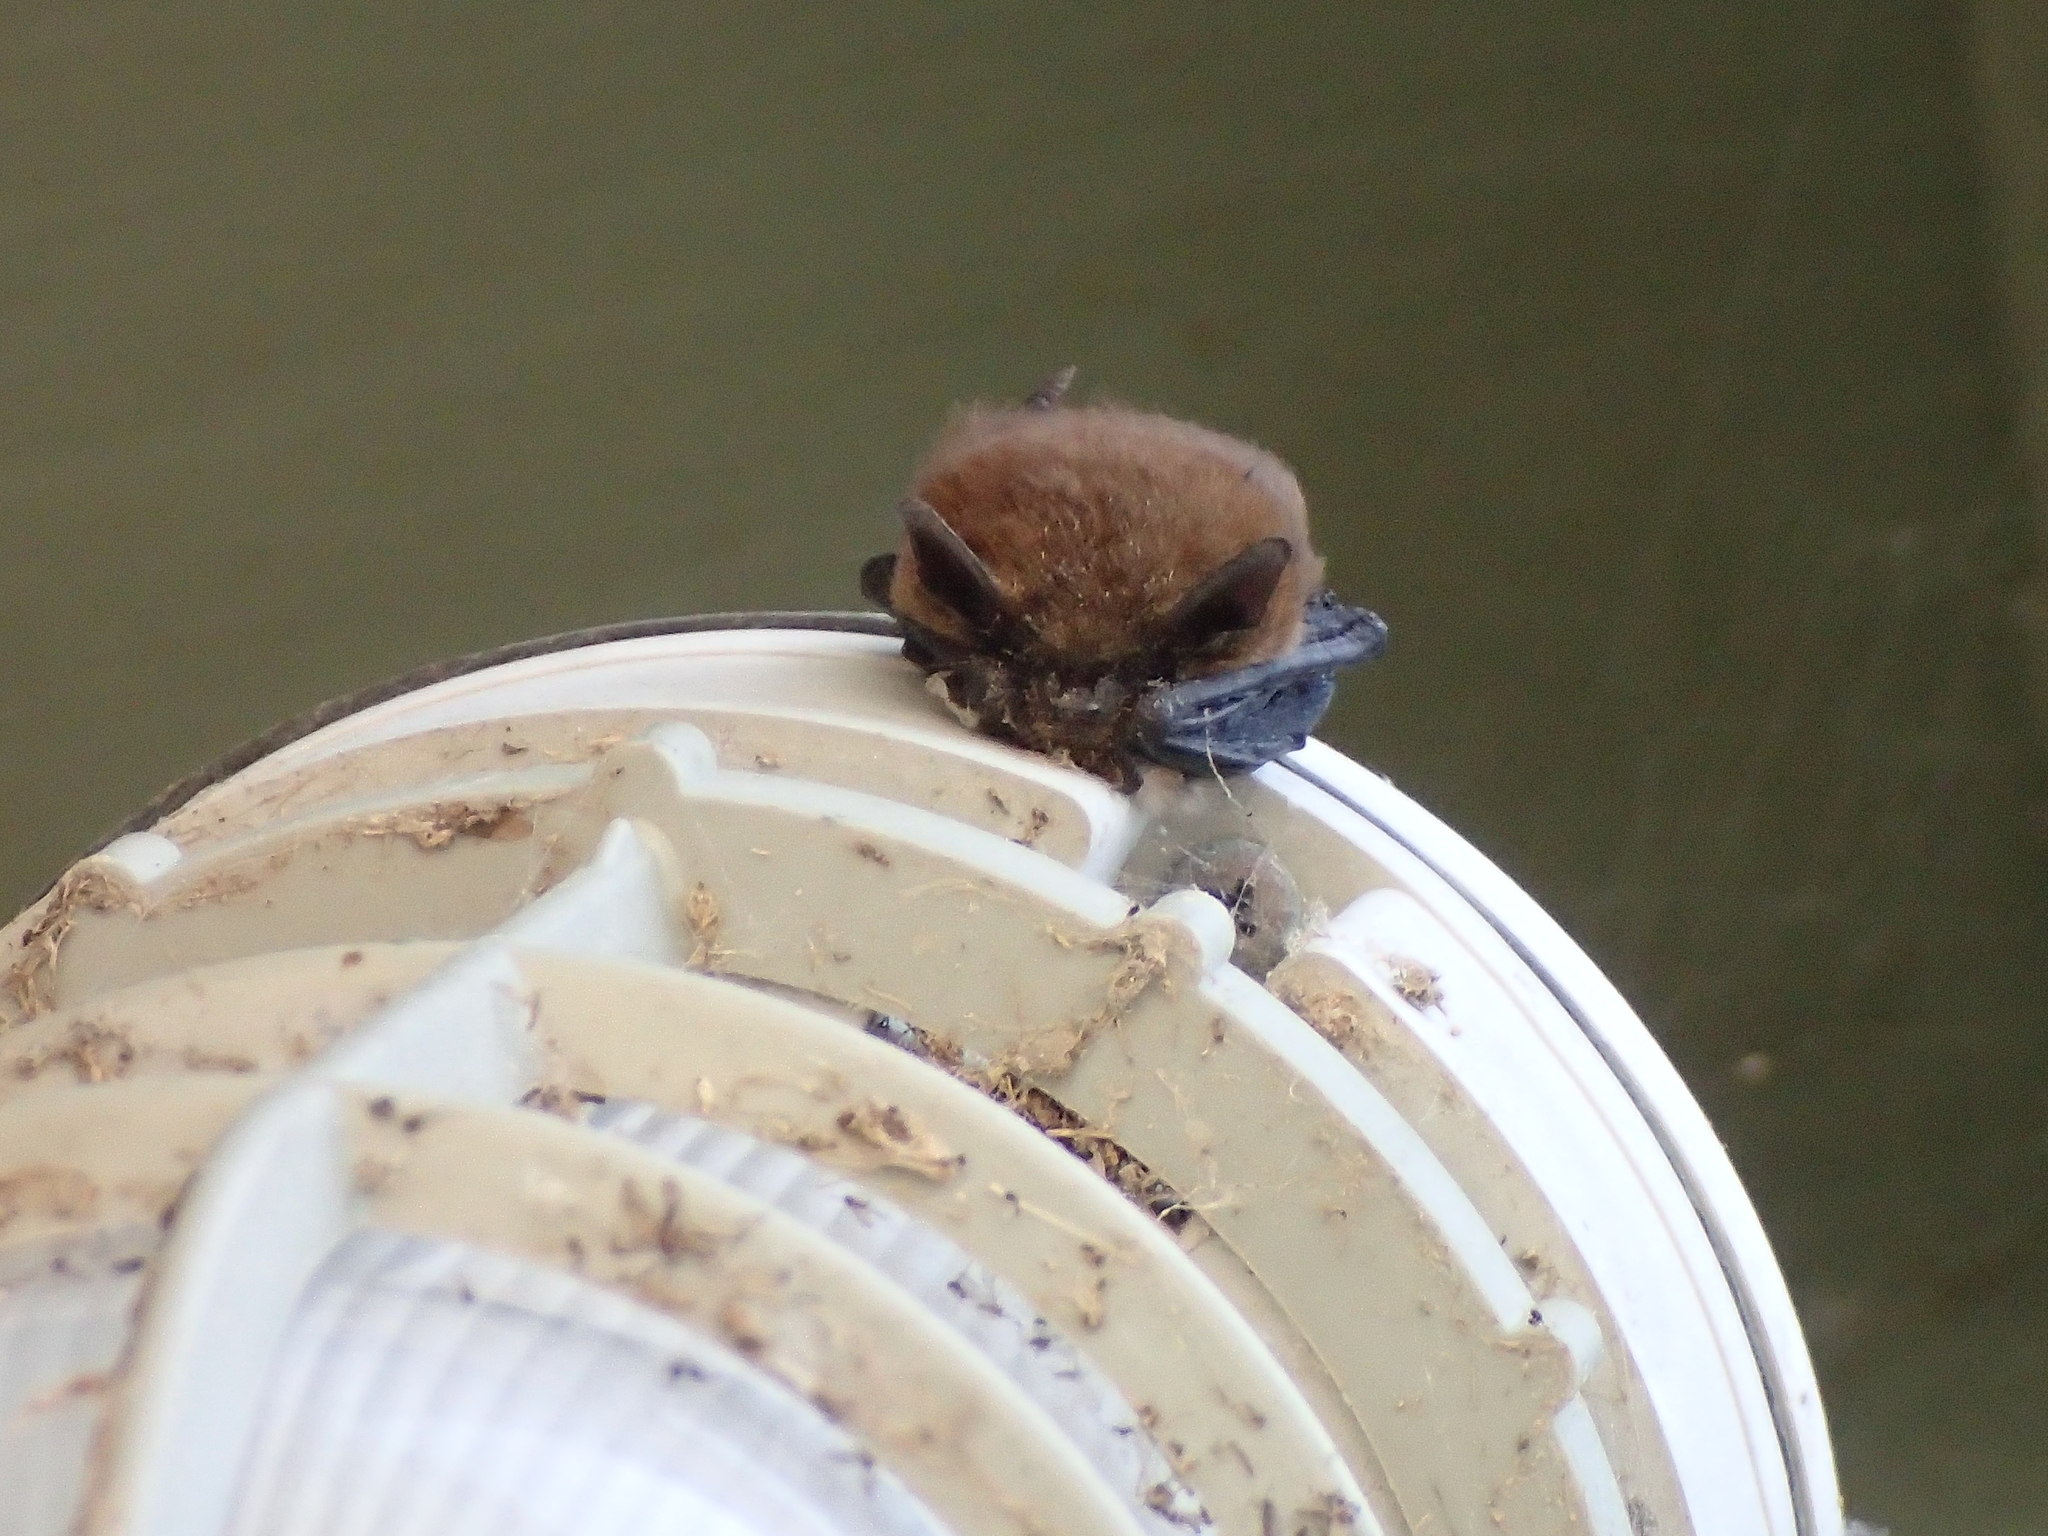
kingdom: Animalia
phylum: Chordata
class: Mammalia
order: Chiroptera
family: Vespertilionidae
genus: Myotis
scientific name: Myotis
